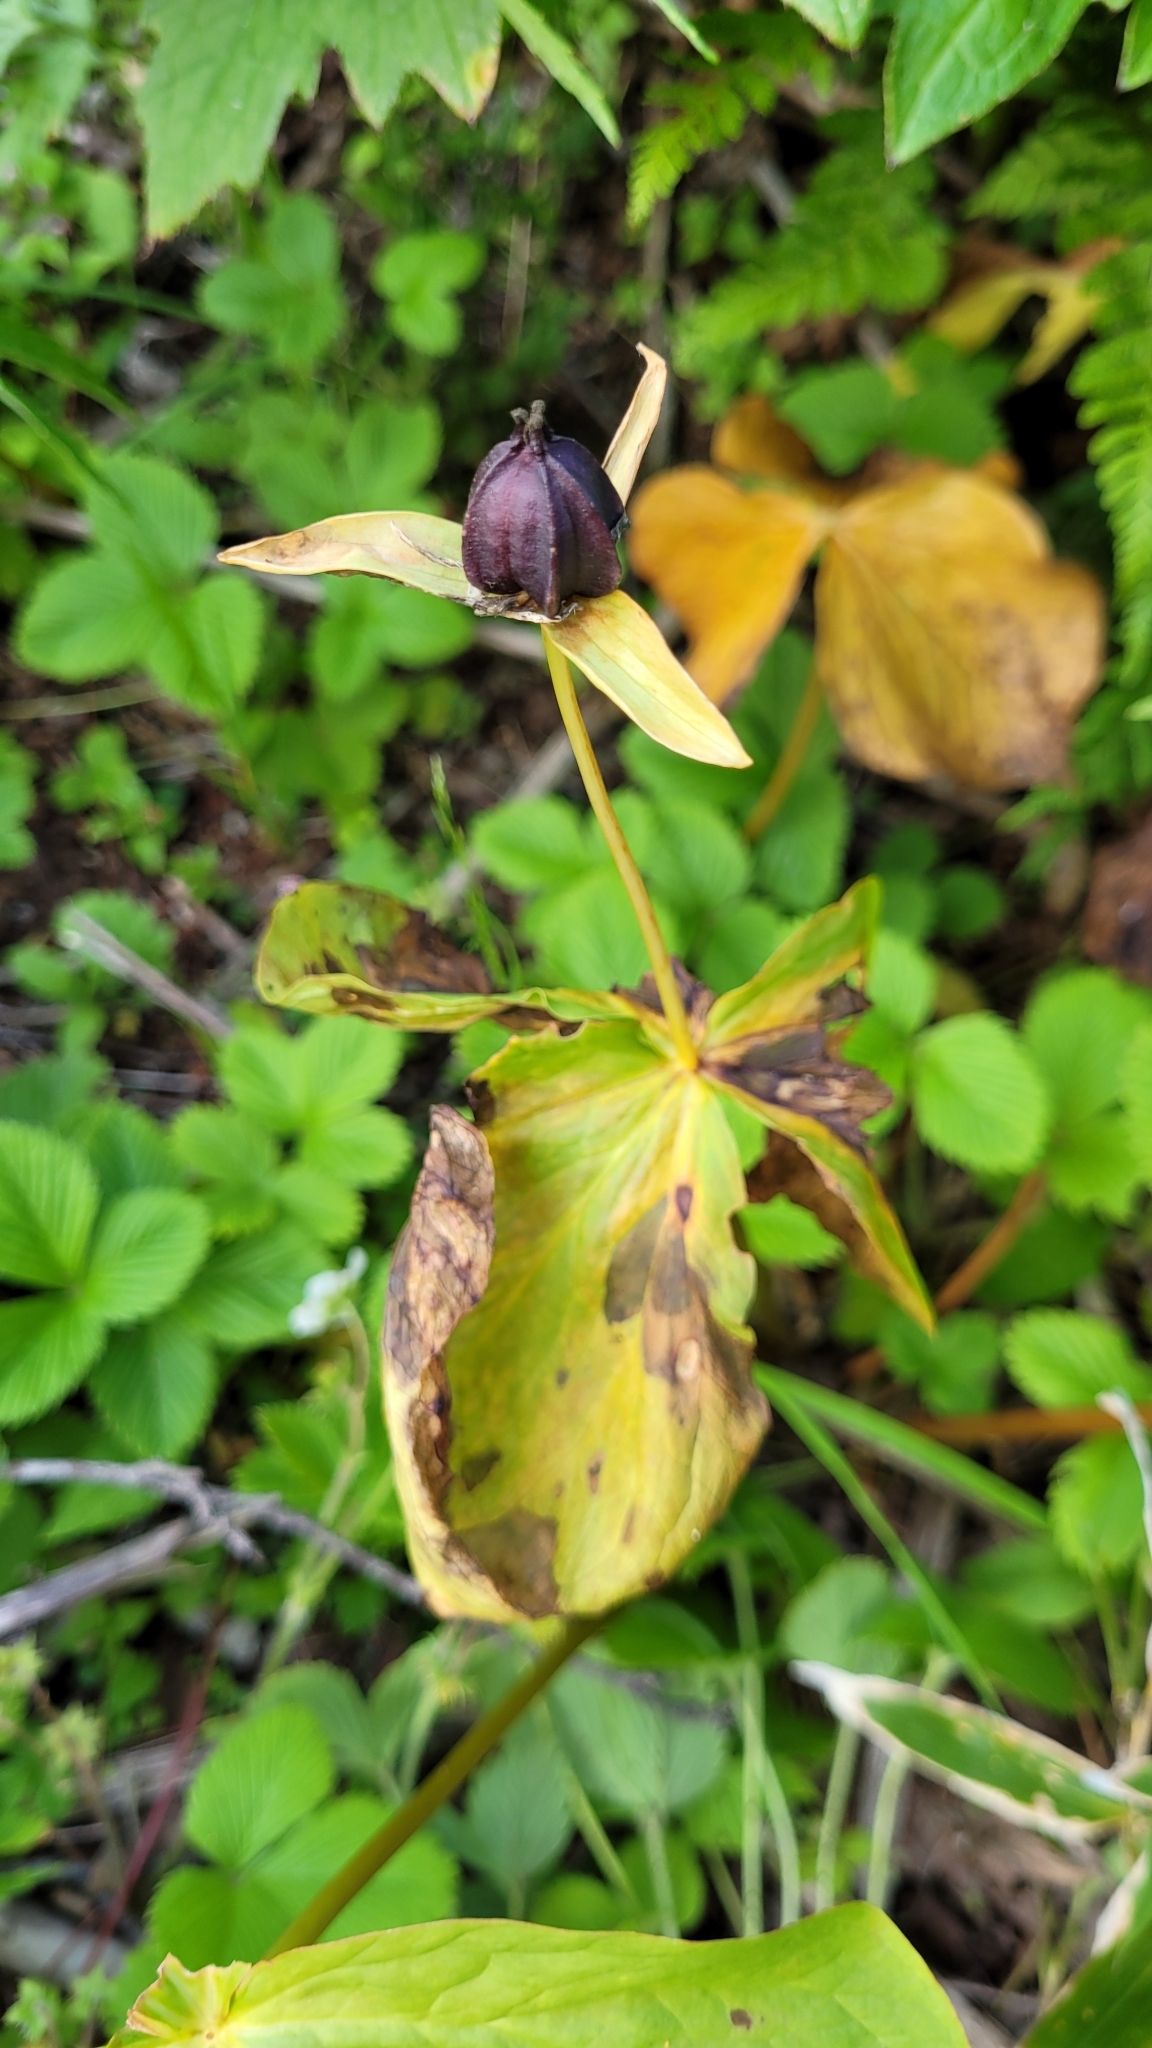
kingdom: Plantae
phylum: Tracheophyta
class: Liliopsida
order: Liliales
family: Melanthiaceae
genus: Trillium
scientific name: Trillium camschatcense
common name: Kamchatka trillium
